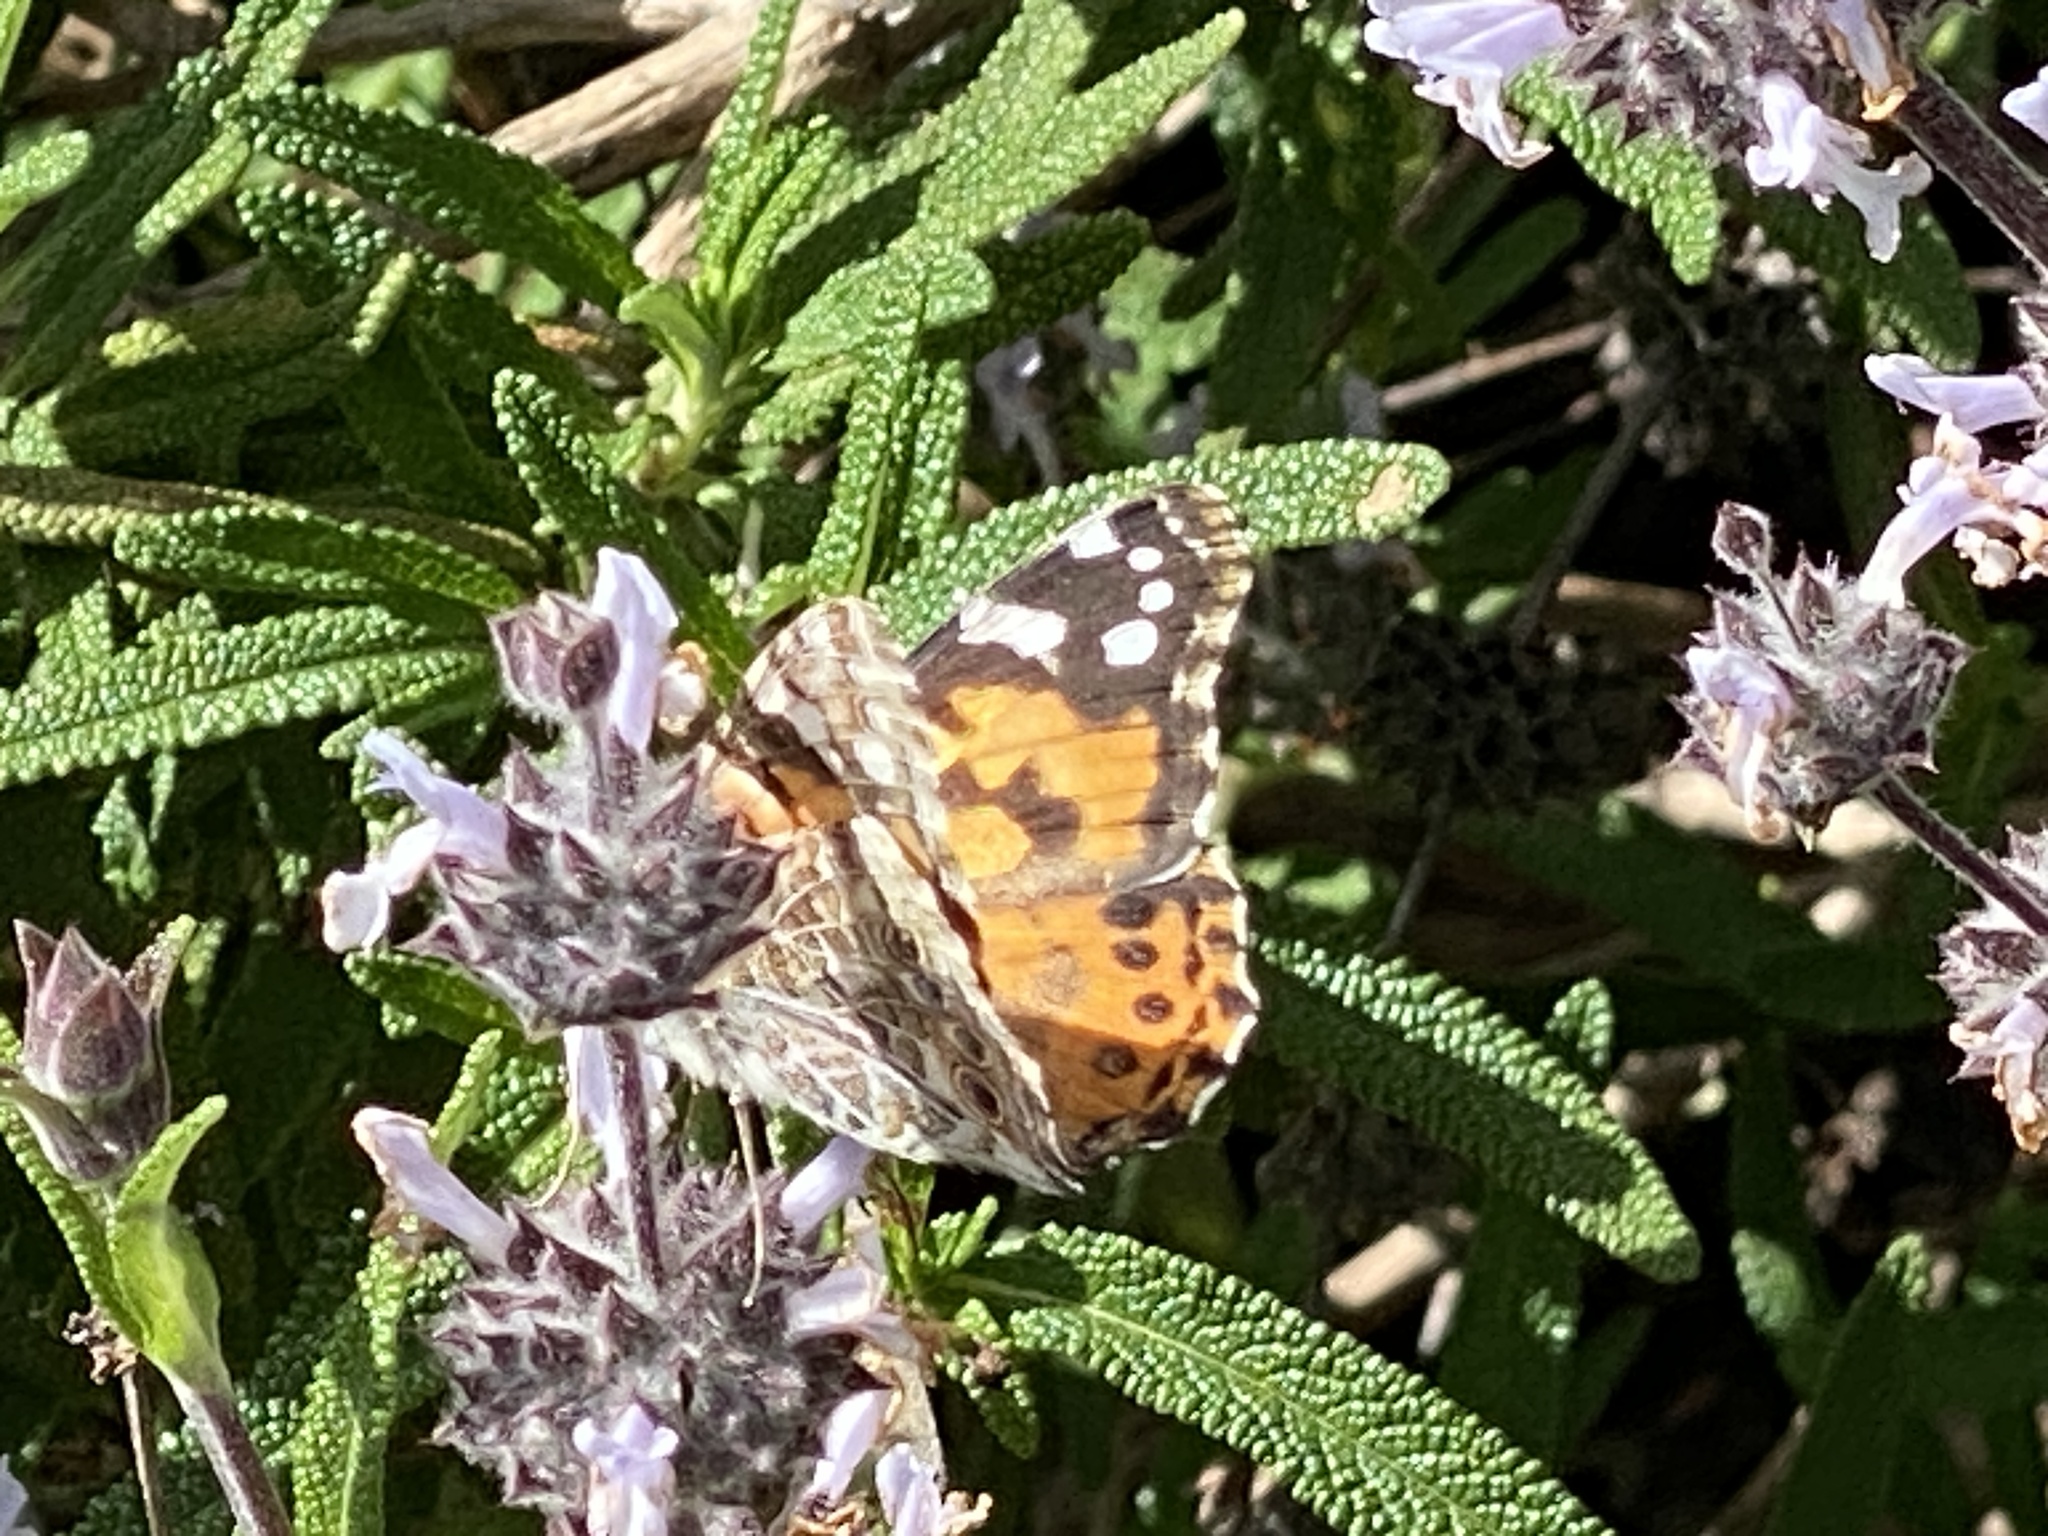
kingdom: Animalia
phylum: Arthropoda
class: Insecta
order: Lepidoptera
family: Nymphalidae
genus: Vanessa
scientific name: Vanessa cardui
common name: Painted lady
